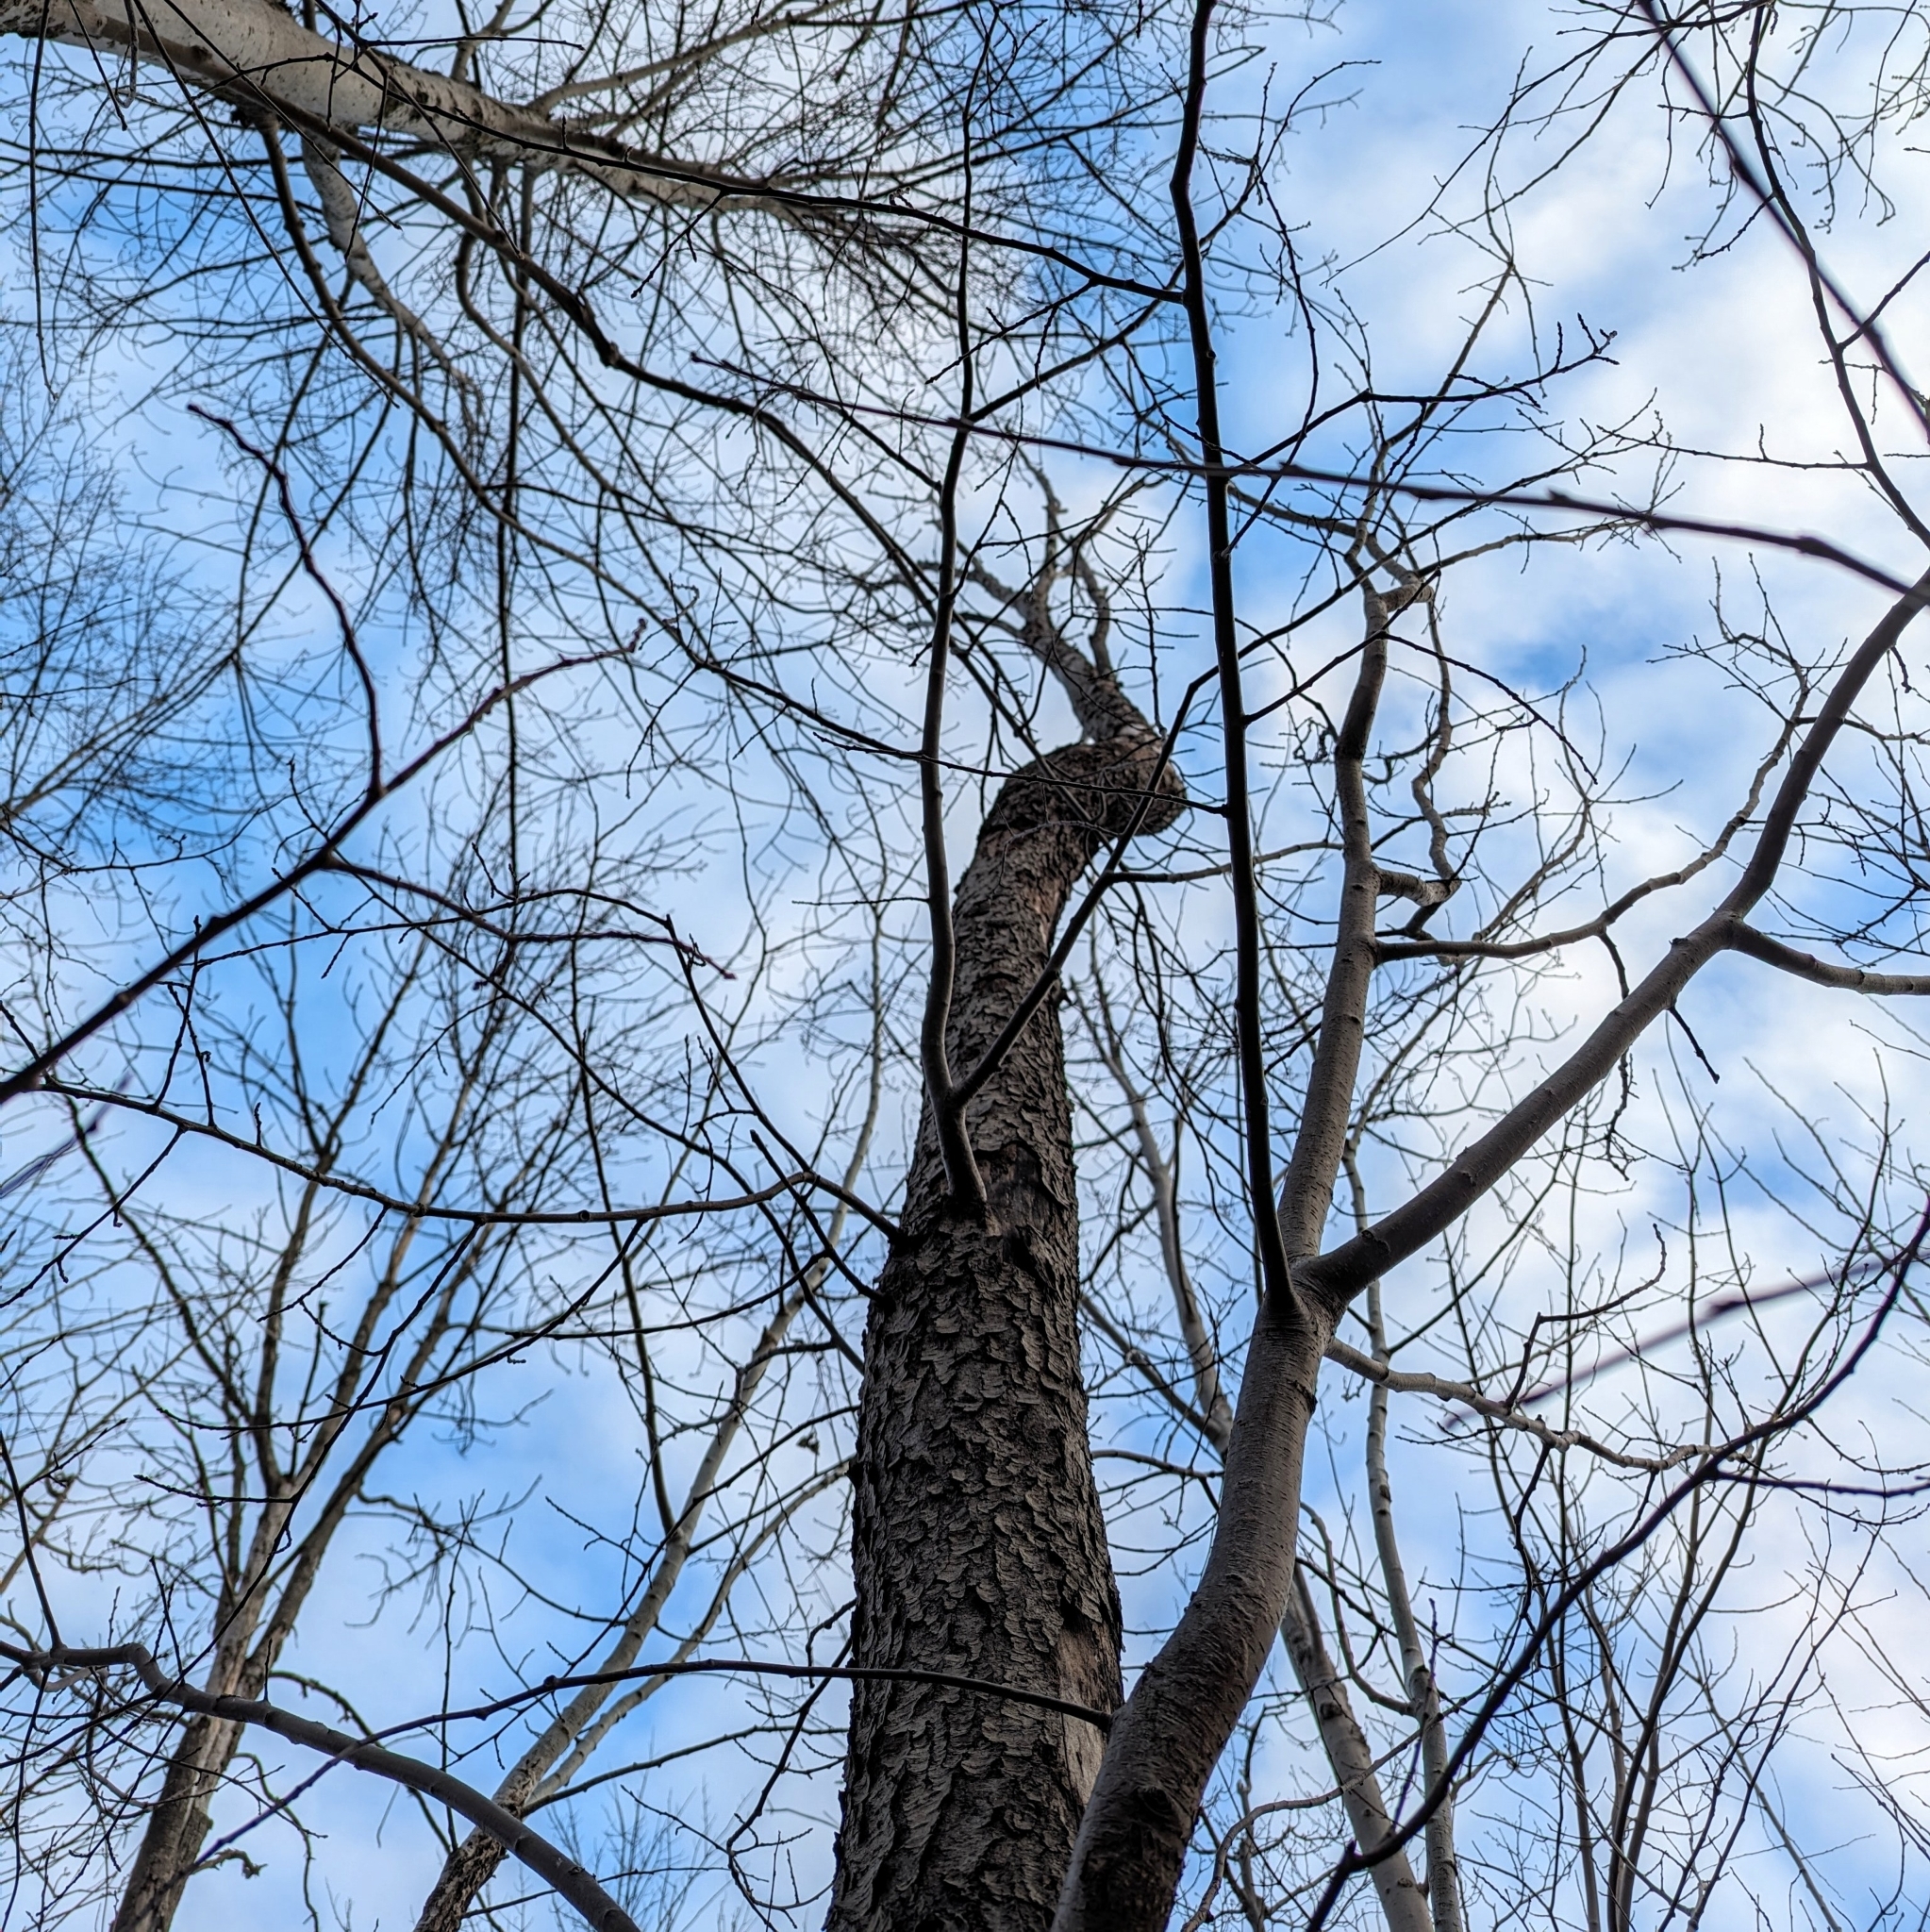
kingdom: Plantae
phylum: Tracheophyta
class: Magnoliopsida
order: Rosales
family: Rosaceae
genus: Prunus
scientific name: Prunus serotina
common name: Black cherry
